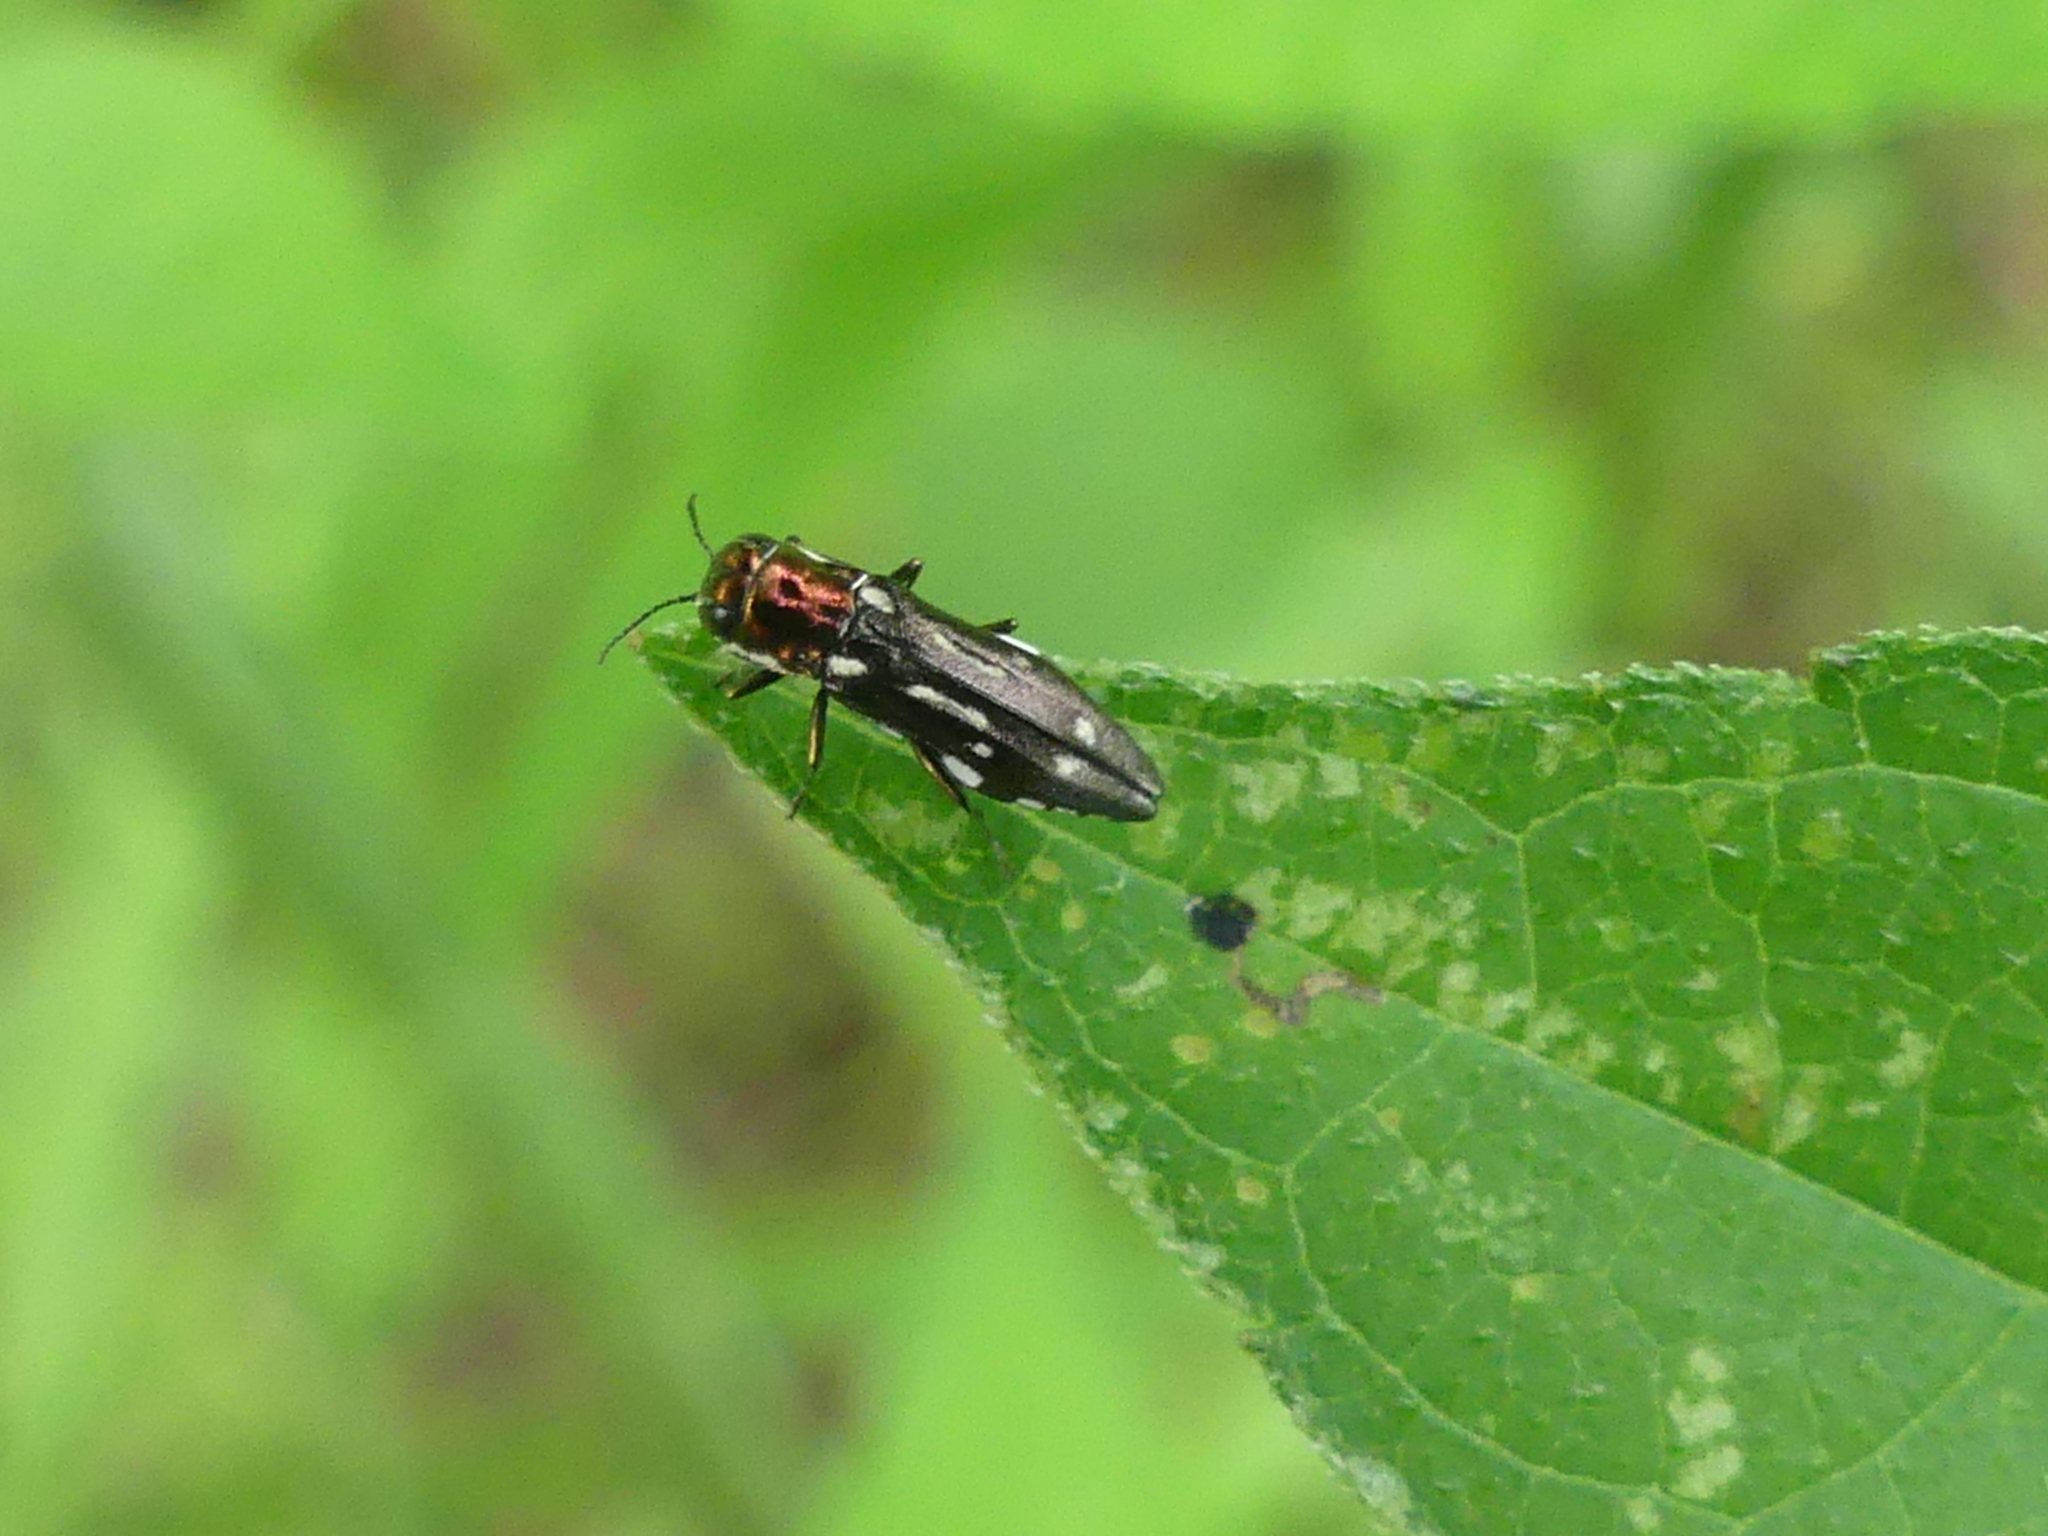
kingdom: Animalia
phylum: Arthropoda
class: Insecta
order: Coleoptera
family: Buprestidae
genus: Agrilus
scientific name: Agrilus scitulus
